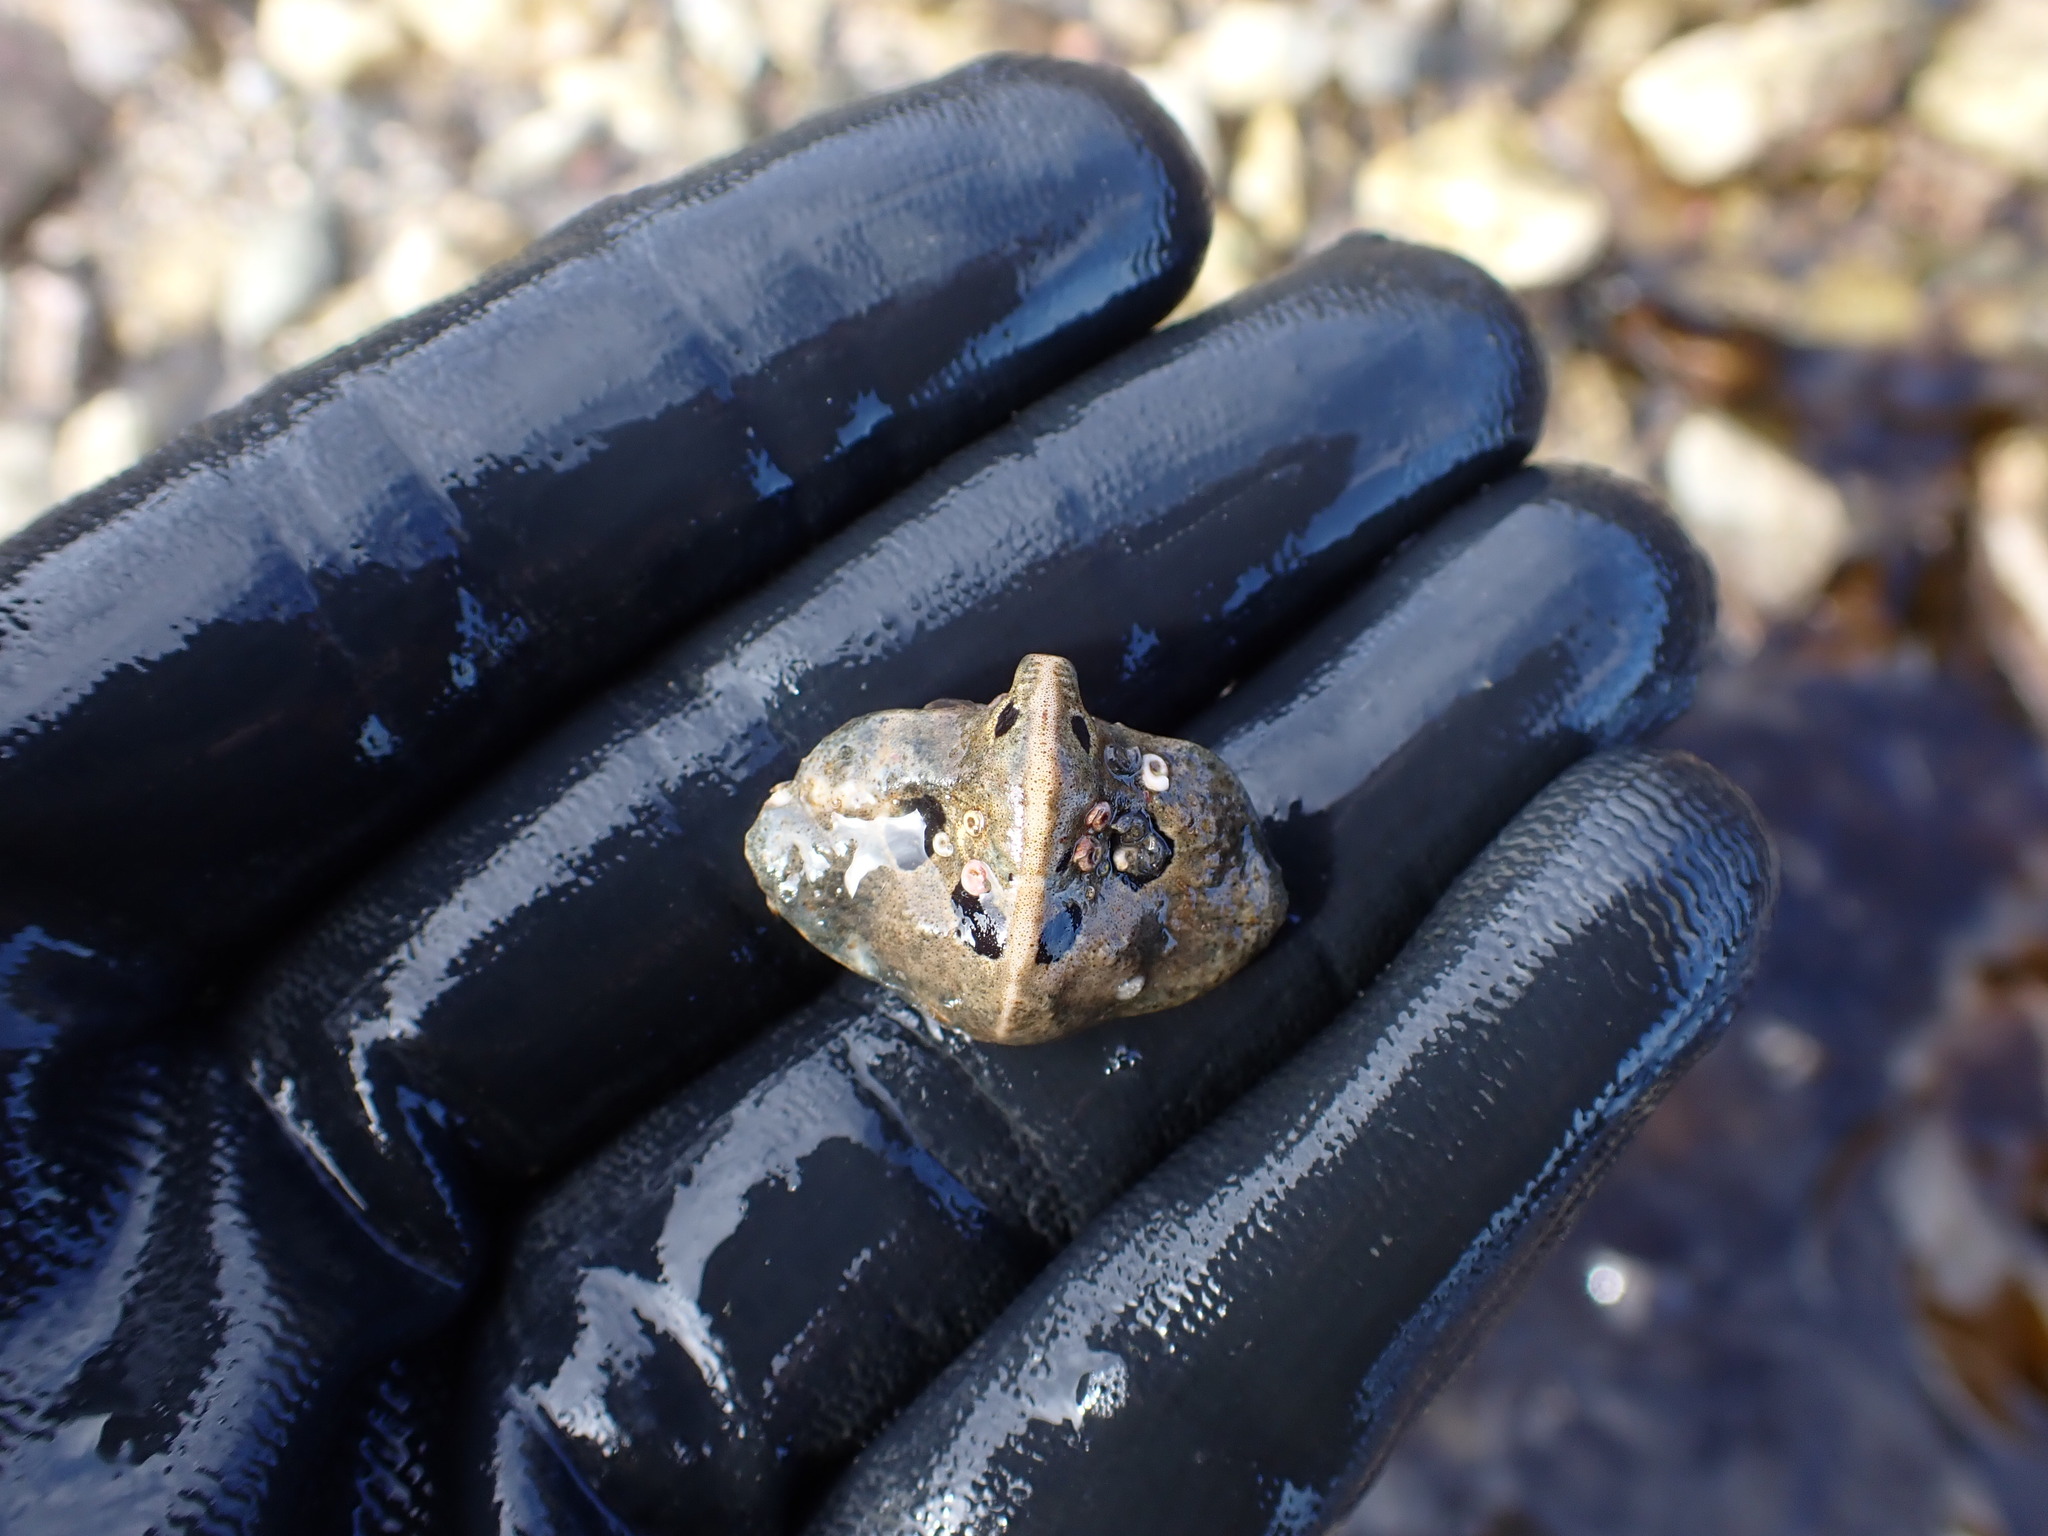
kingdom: Animalia
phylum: Arthropoda
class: Malacostraca
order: Decapoda
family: Lithodidae
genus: Cryptolithodes
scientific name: Cryptolithodes typicus
